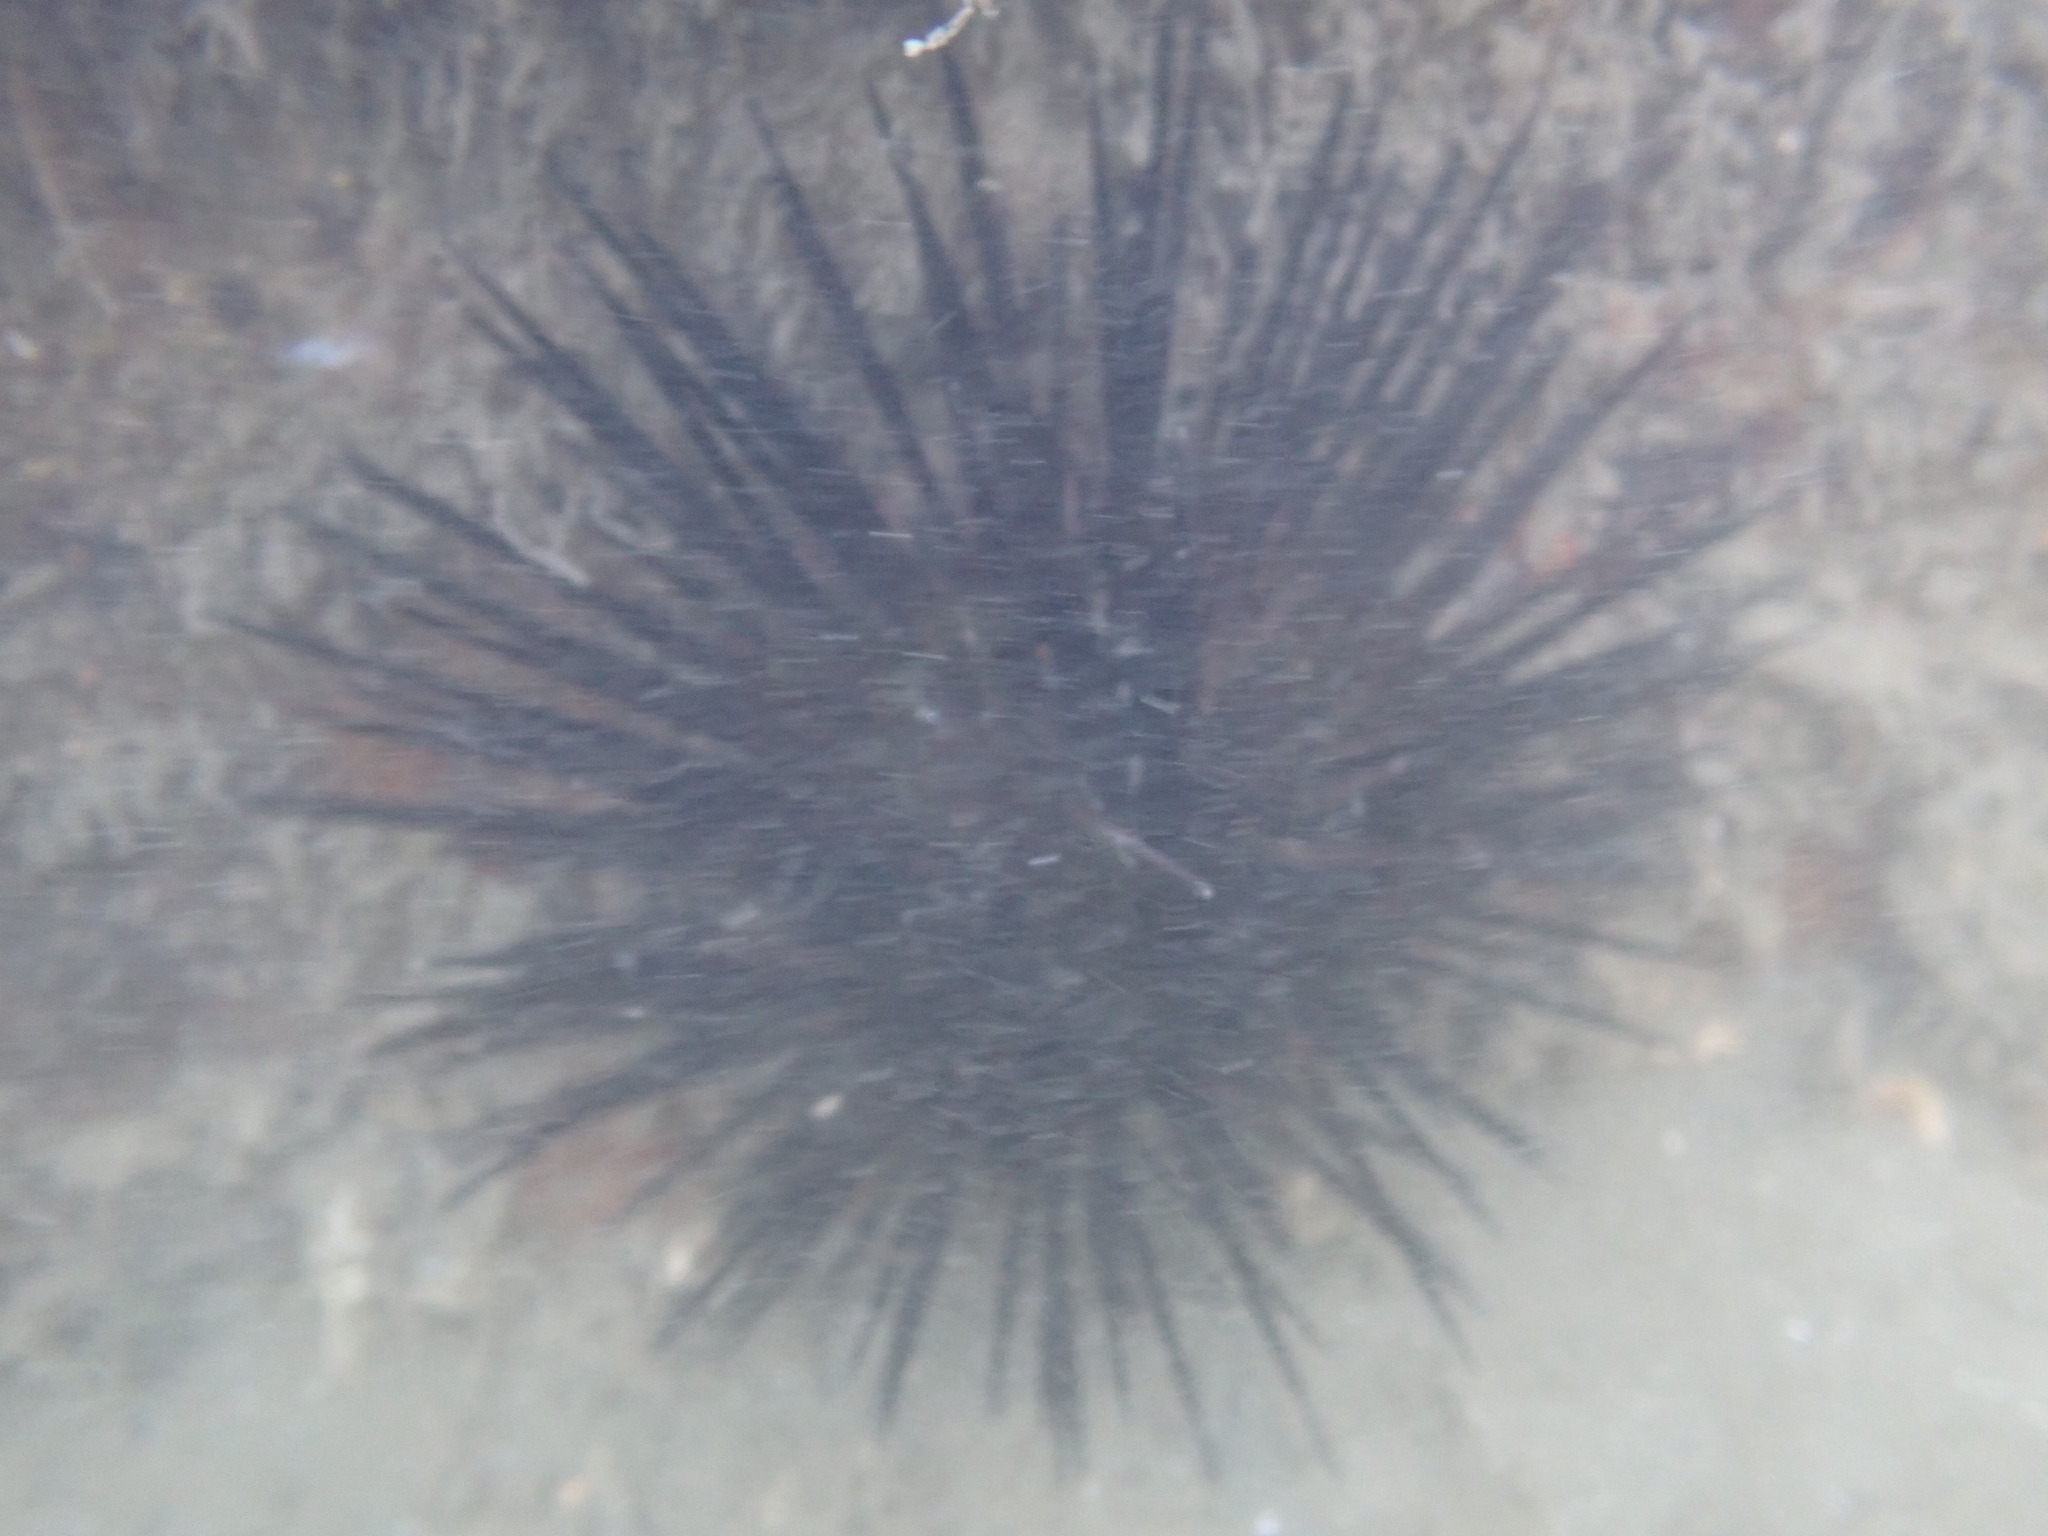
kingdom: Animalia
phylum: Echinodermata
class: Echinoidea
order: Arbacioida
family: Arbaciidae
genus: Arbacia
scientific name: Arbacia stellata
